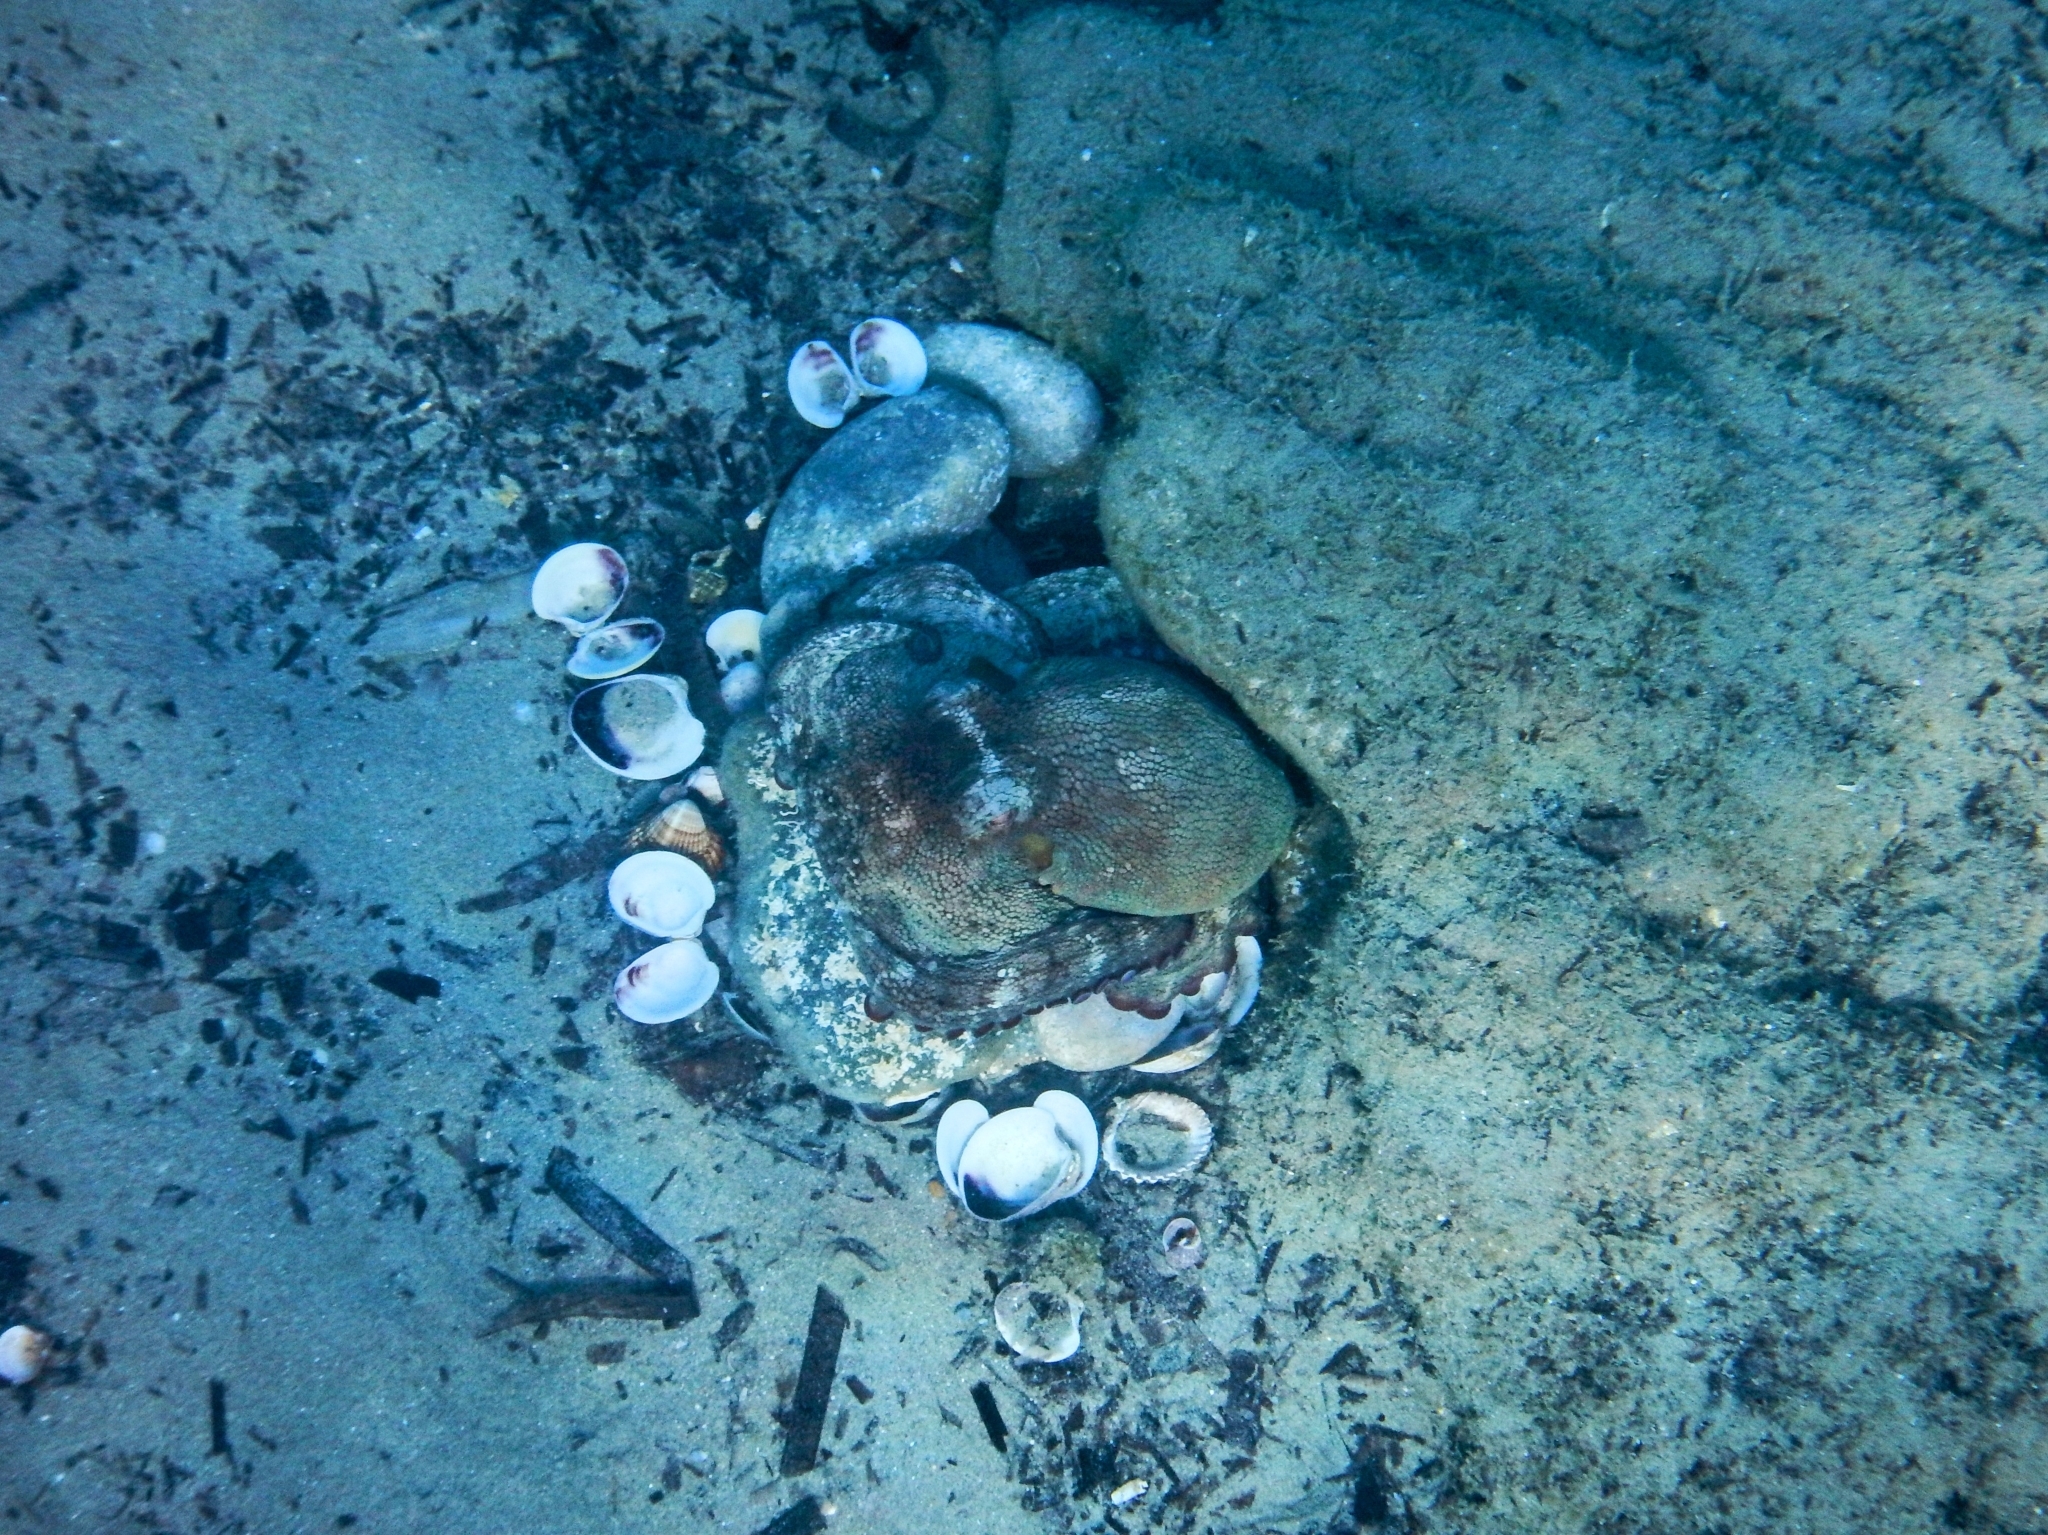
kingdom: Animalia
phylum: Mollusca
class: Cephalopoda
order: Octopoda
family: Octopodidae
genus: Octopus
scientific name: Octopus vulgaris
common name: Common octopus
